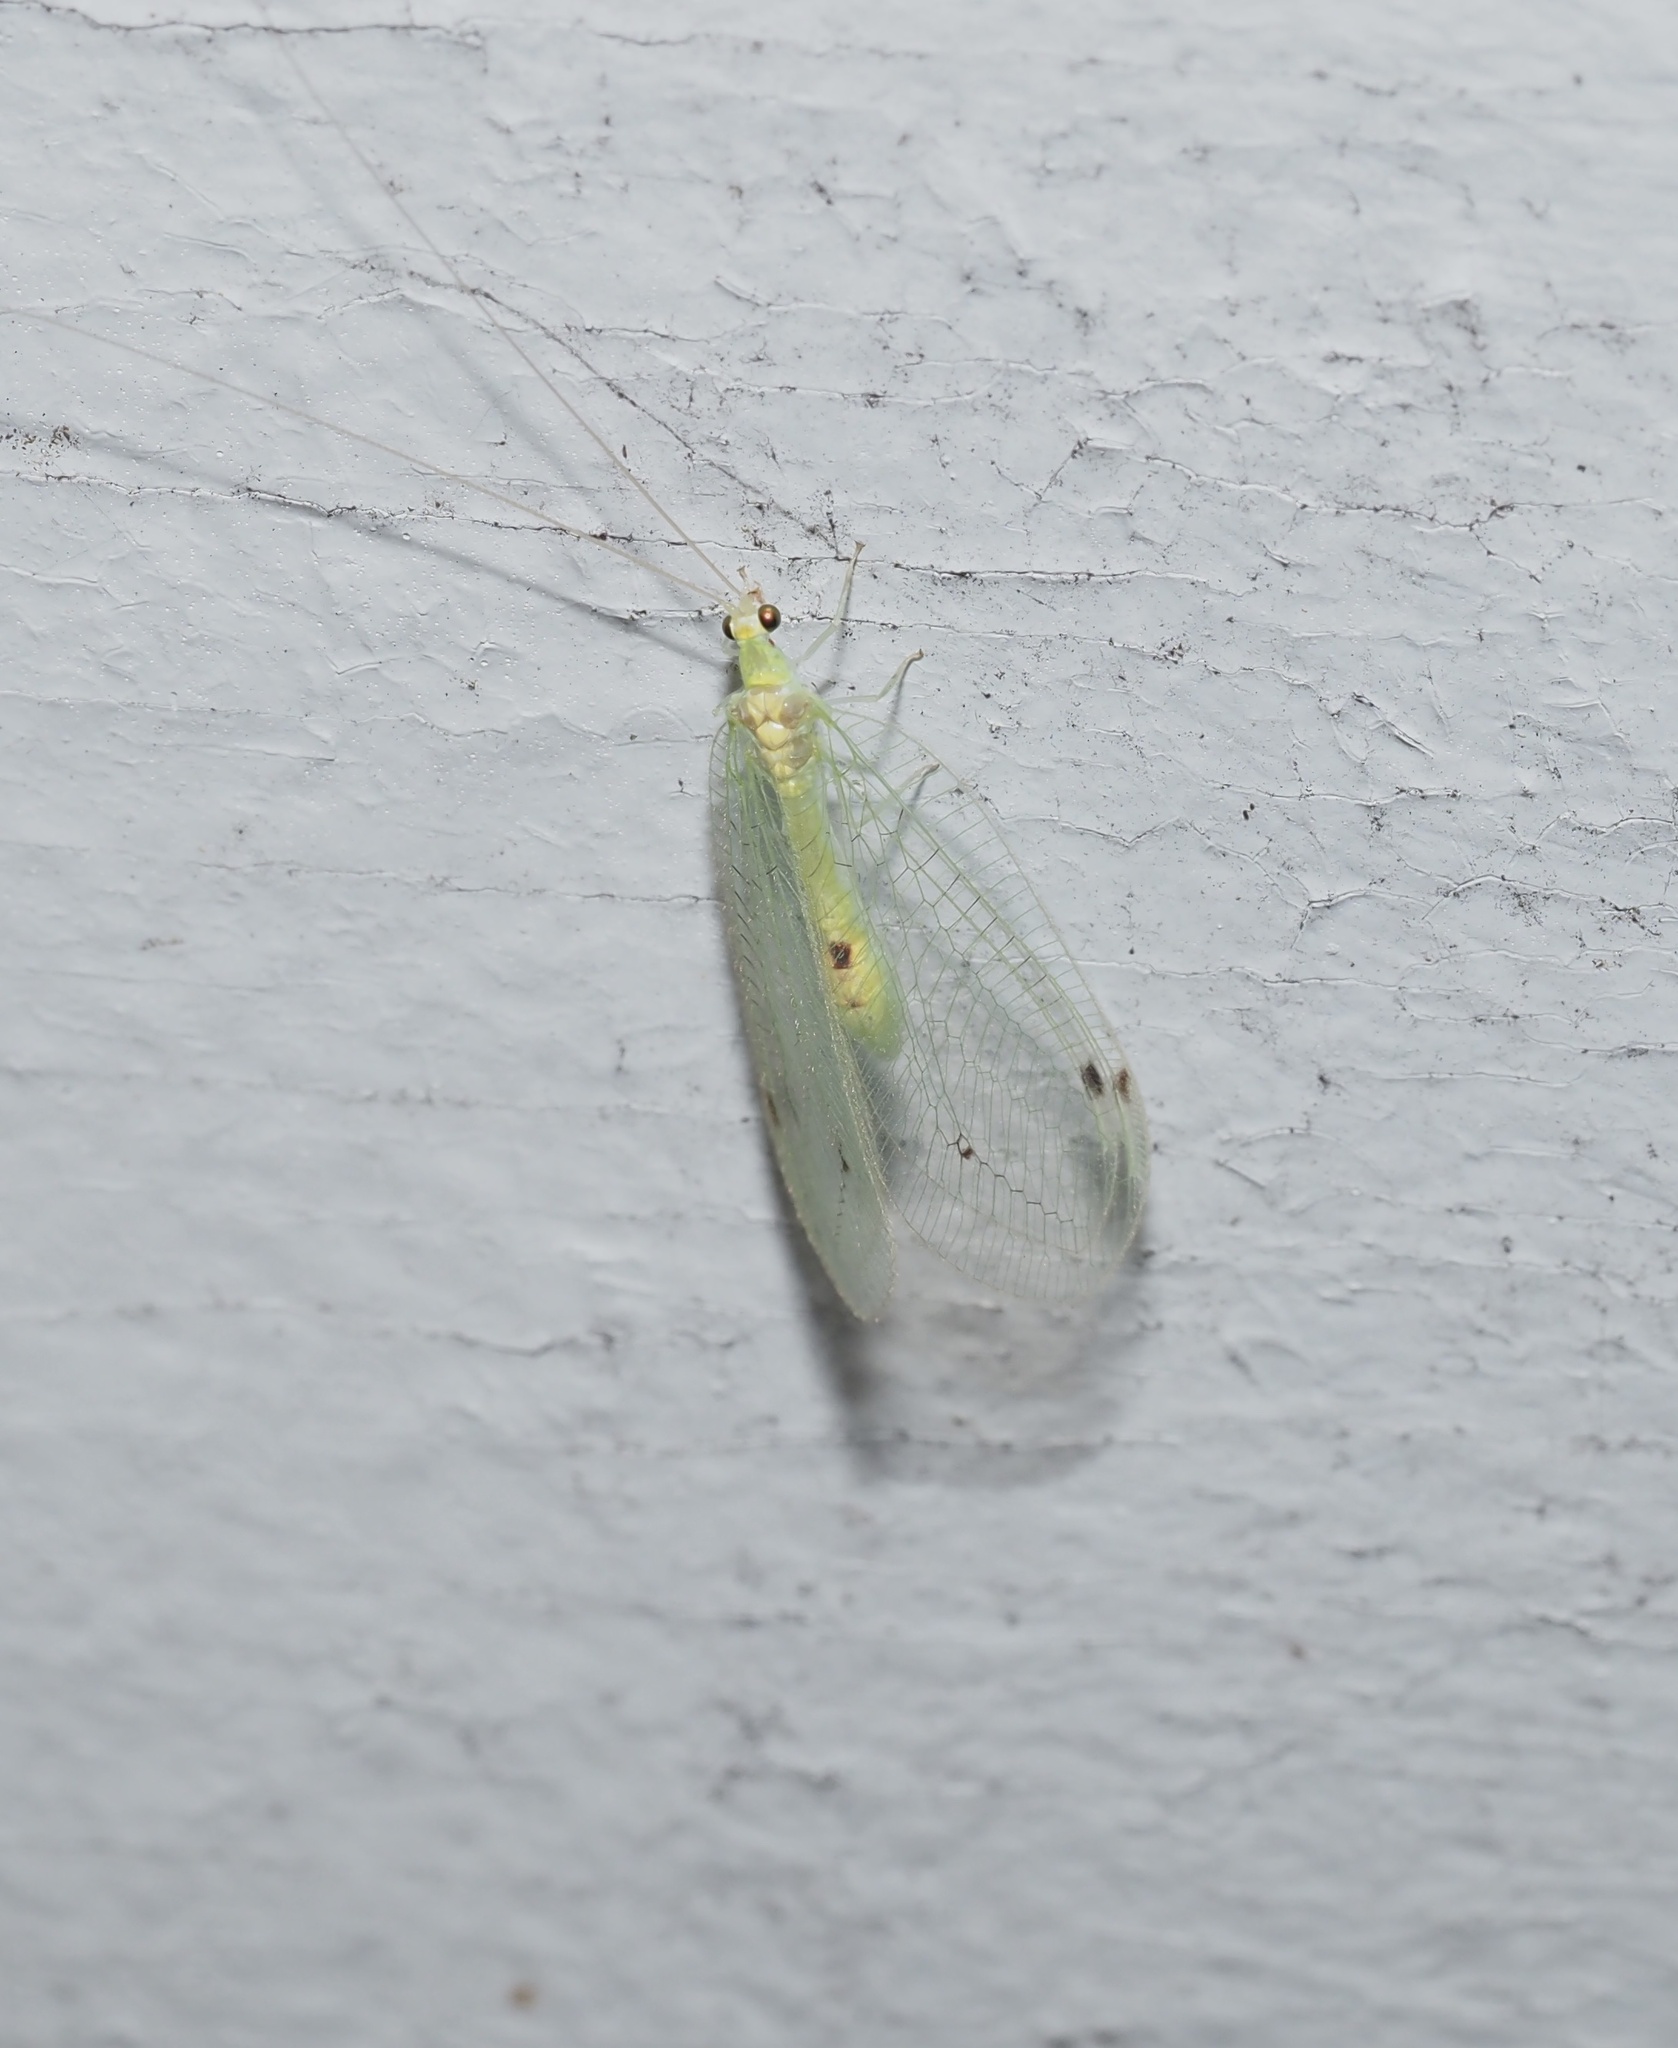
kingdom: Animalia
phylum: Arthropoda
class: Insecta
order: Neuroptera
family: Chrysopidae
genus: Leucochrysa
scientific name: Leucochrysa insularis
